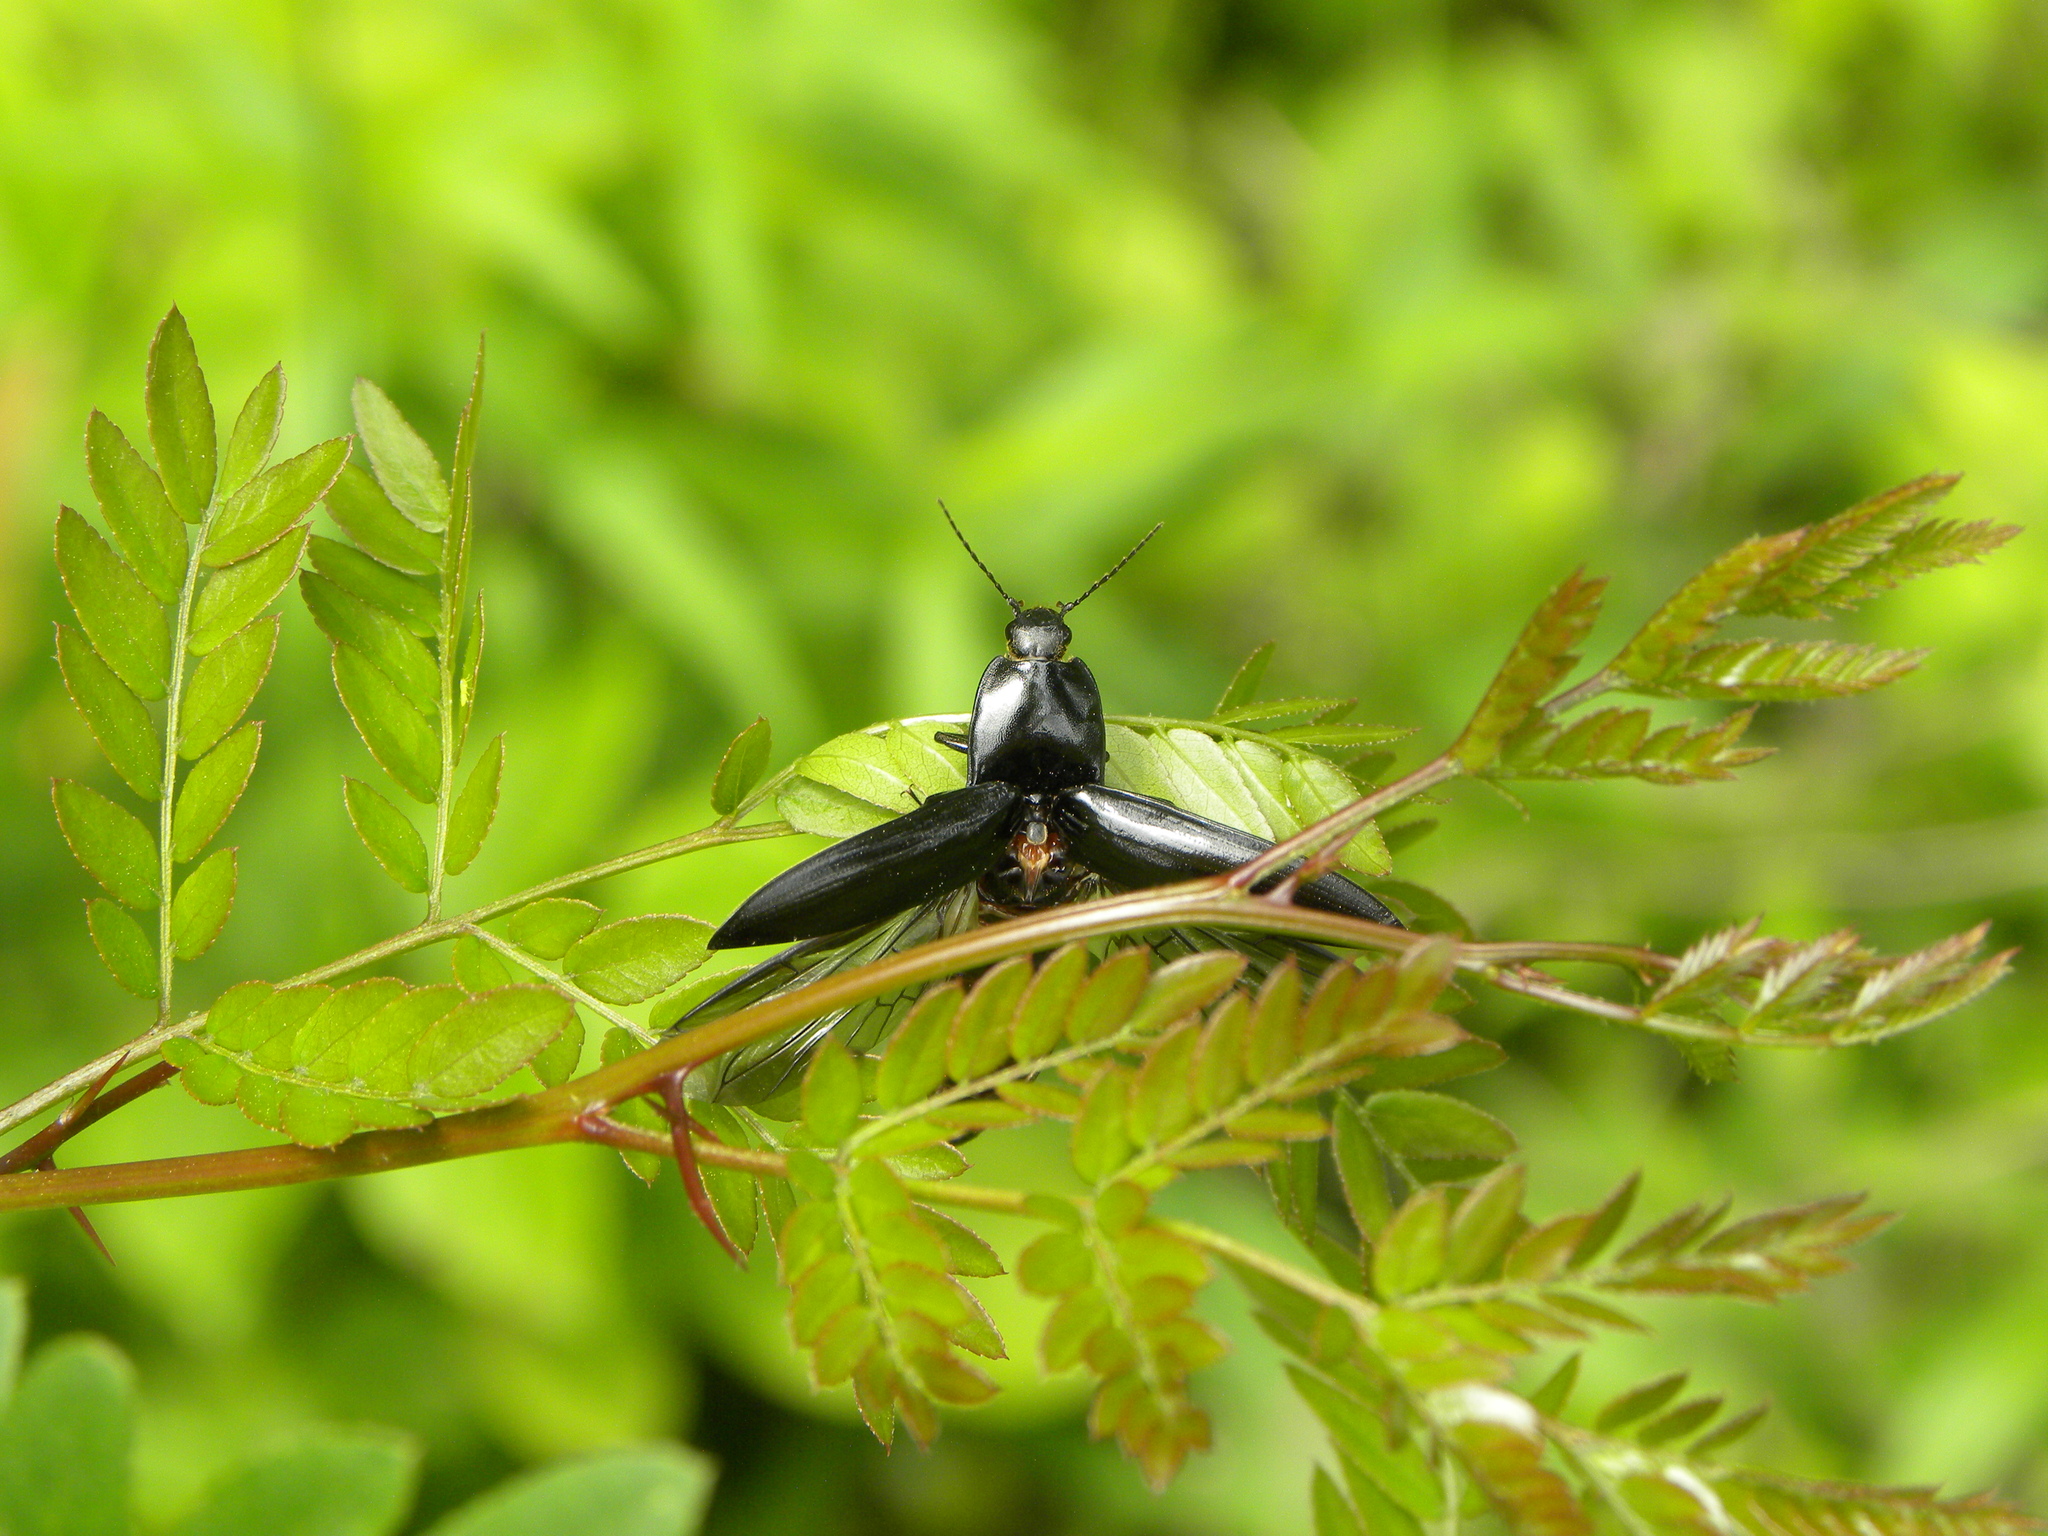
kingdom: Plantae
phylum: Tracheophyta
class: Magnoliopsida
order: Fabales
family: Fabaceae
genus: Gleditsia
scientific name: Gleditsia triacanthos
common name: Common honeylocust
